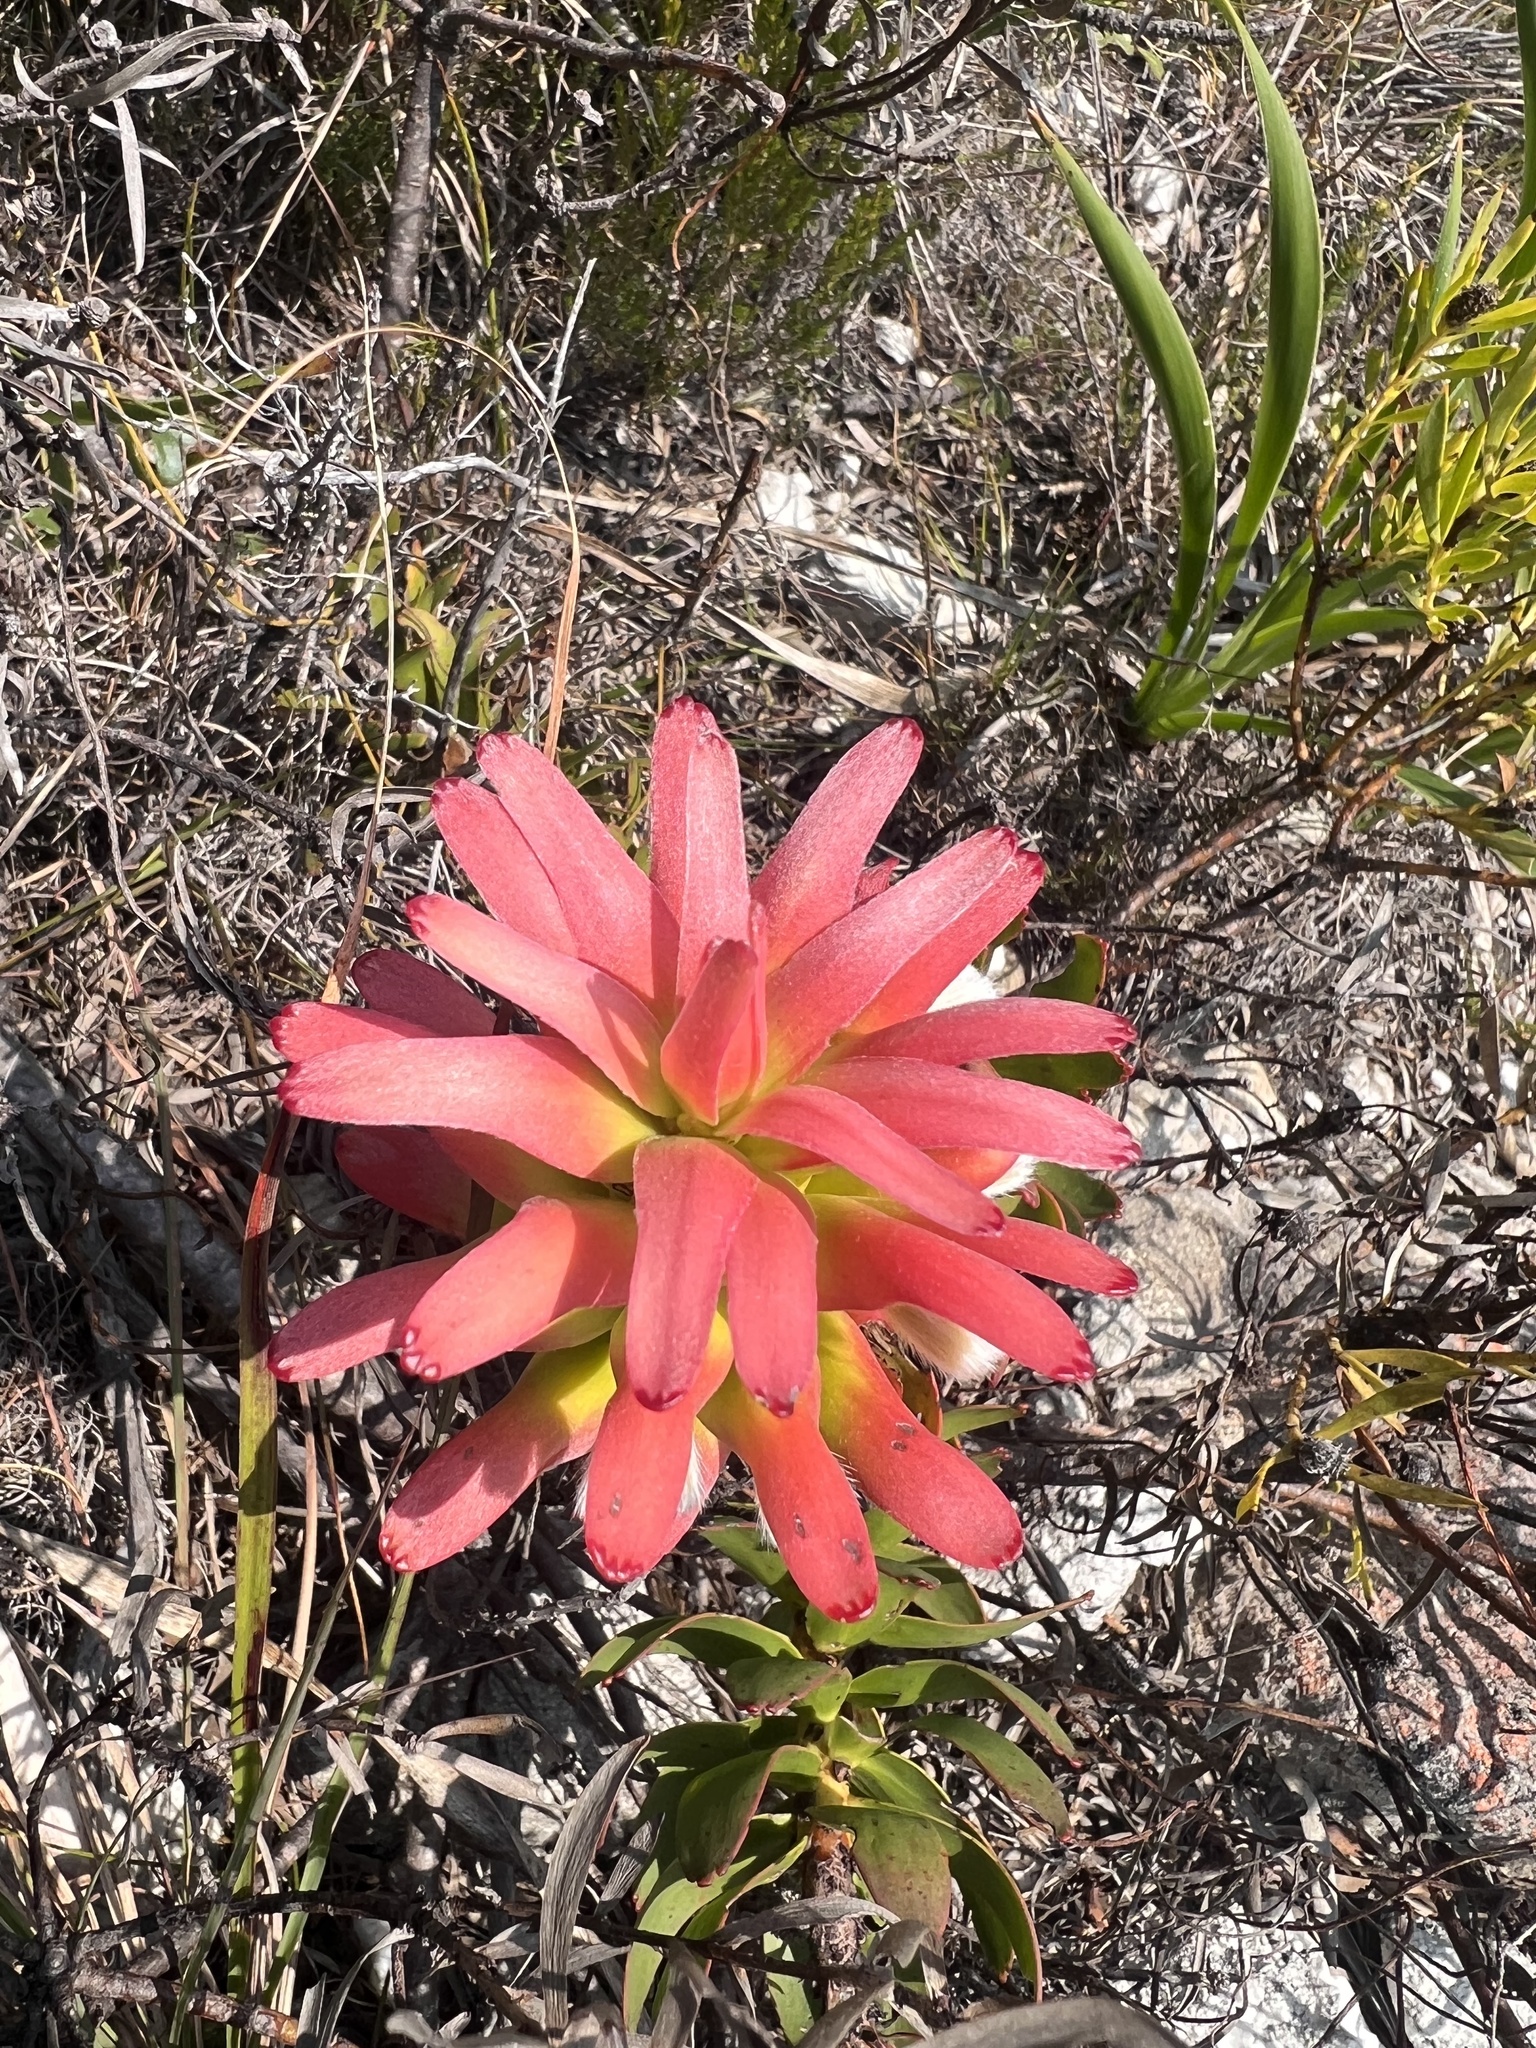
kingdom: Plantae
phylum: Tracheophyta
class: Magnoliopsida
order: Proteales
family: Proteaceae
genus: Mimetes
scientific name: Mimetes cucullatus
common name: Common pagoda
